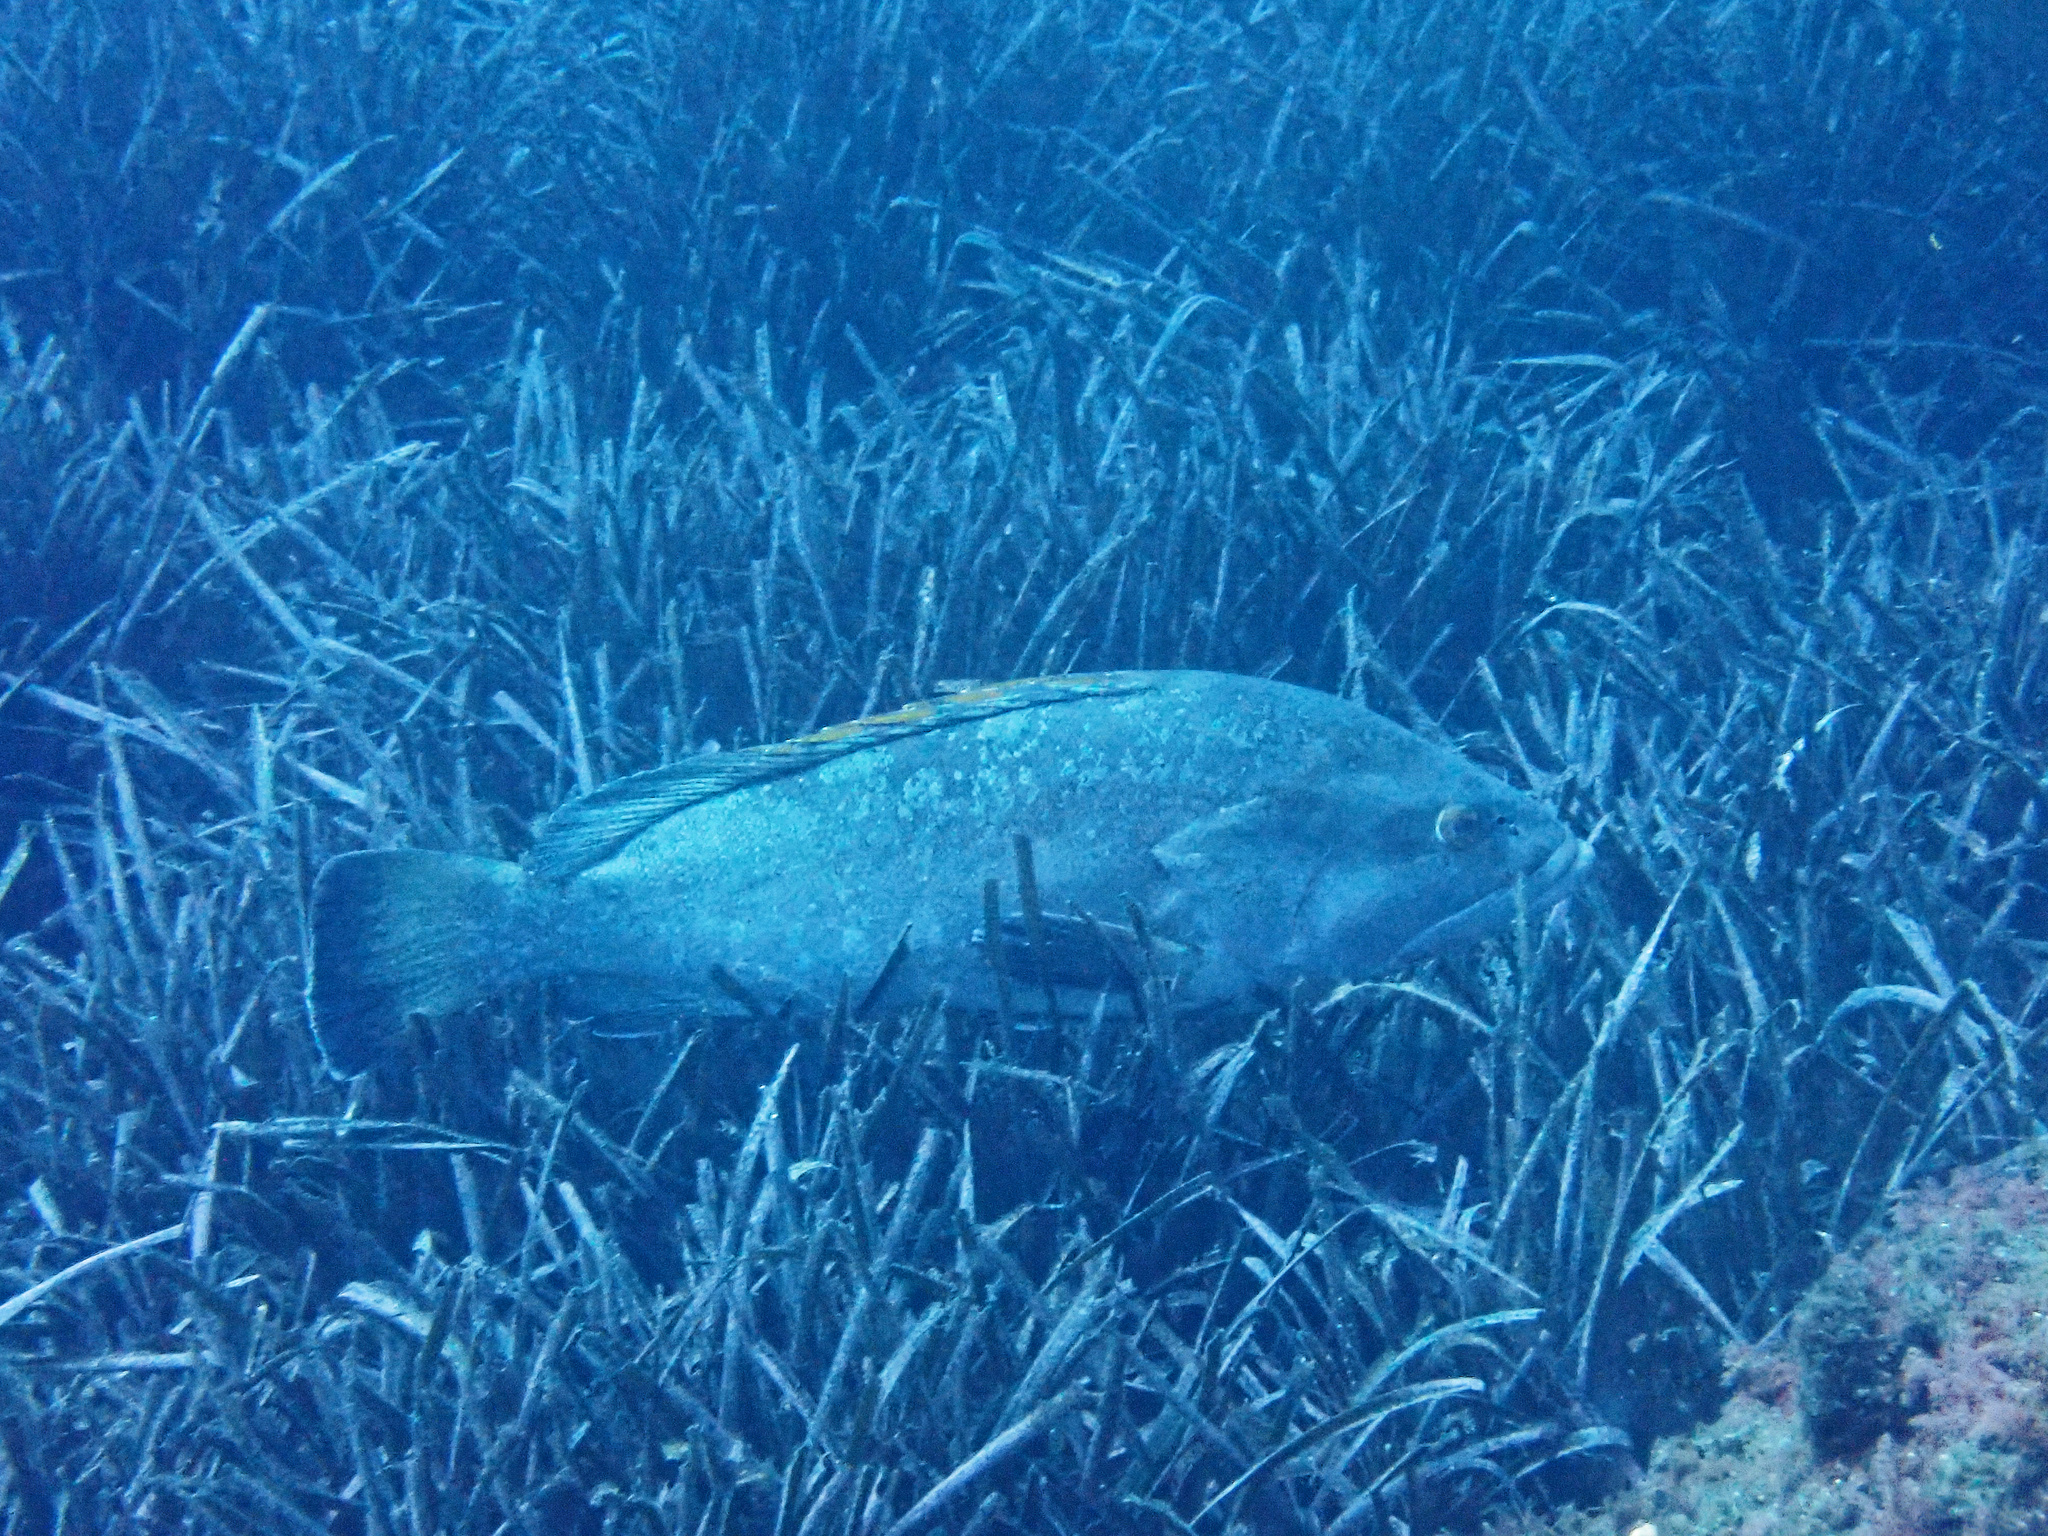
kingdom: Animalia
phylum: Chordata
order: Perciformes
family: Serranidae
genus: Epinephelus
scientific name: Epinephelus marginatus
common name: Dusky grouper
